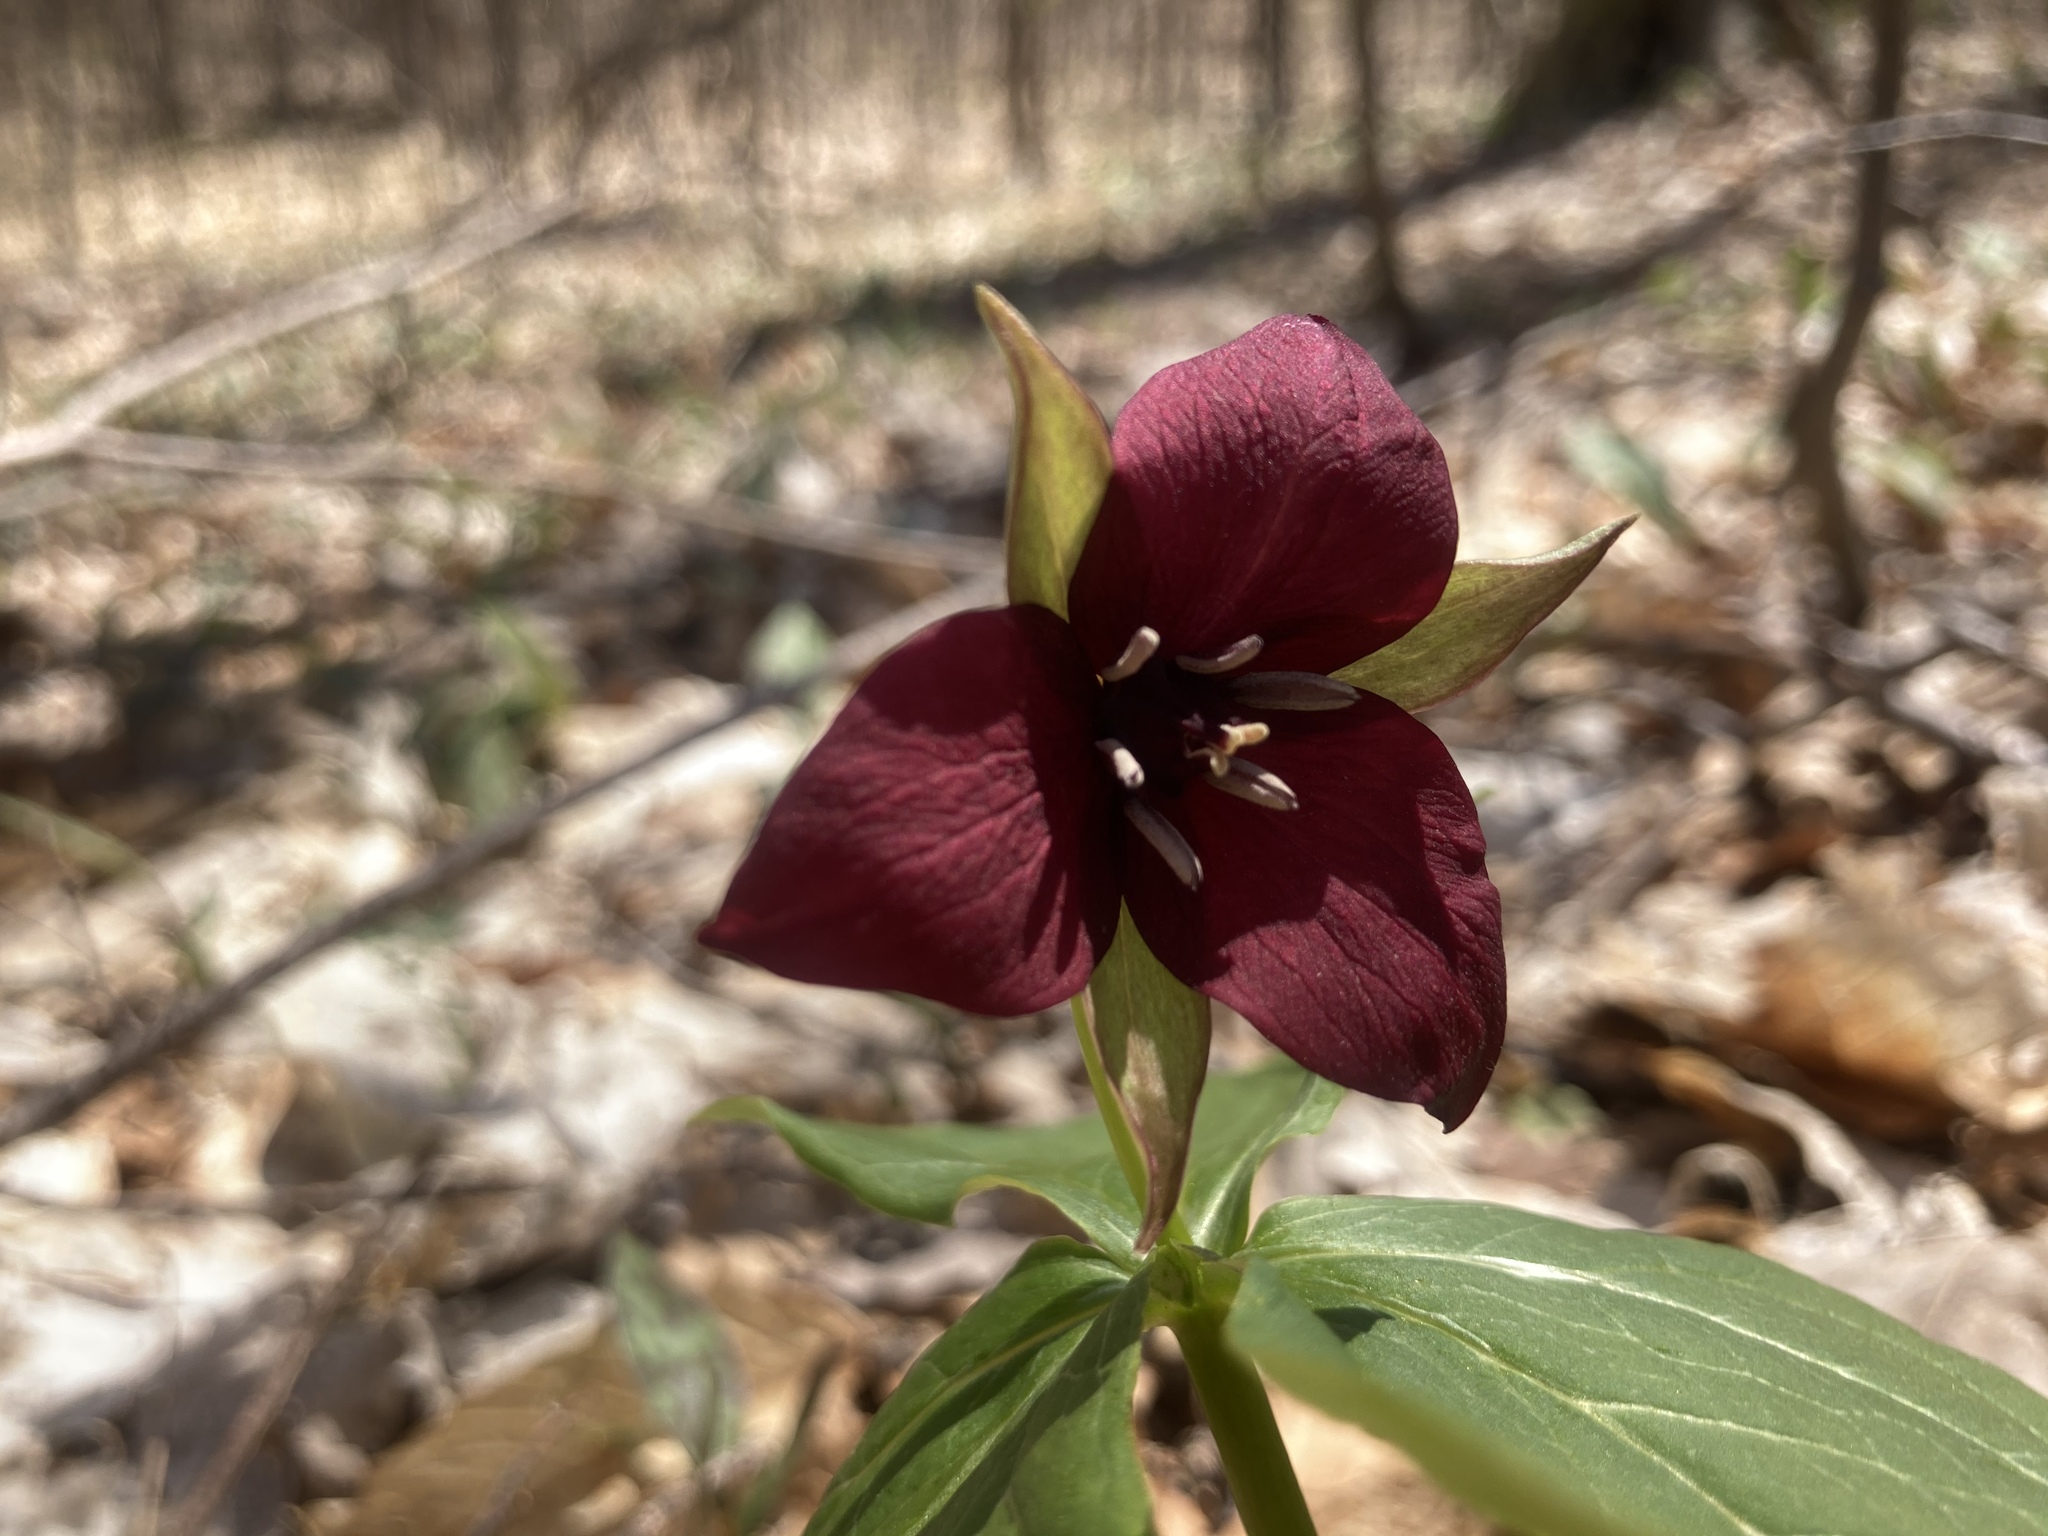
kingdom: Plantae
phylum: Tracheophyta
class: Liliopsida
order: Liliales
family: Melanthiaceae
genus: Trillium
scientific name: Trillium erectum
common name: Purple trillium
